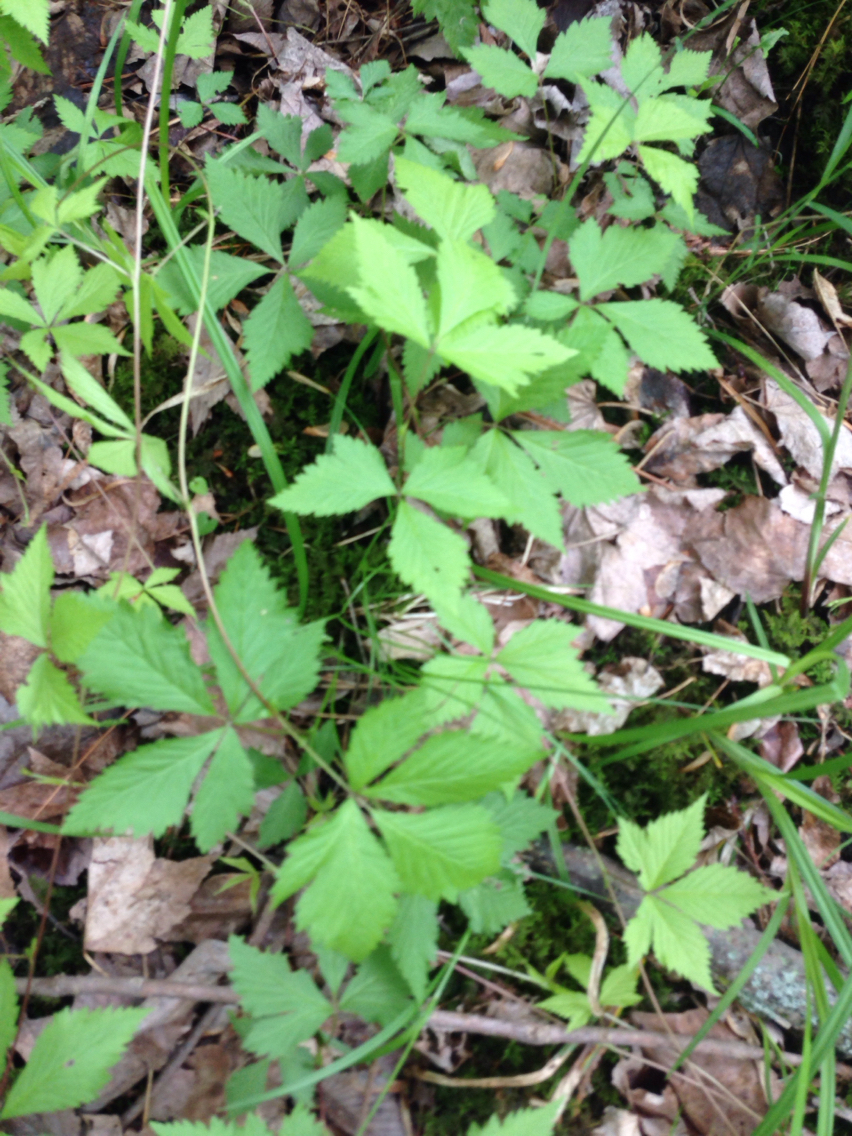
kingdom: Plantae
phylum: Tracheophyta
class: Magnoliopsida
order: Rosales
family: Rosaceae
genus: Rubus
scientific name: Rubus pubescens
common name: Dwarf raspberry
